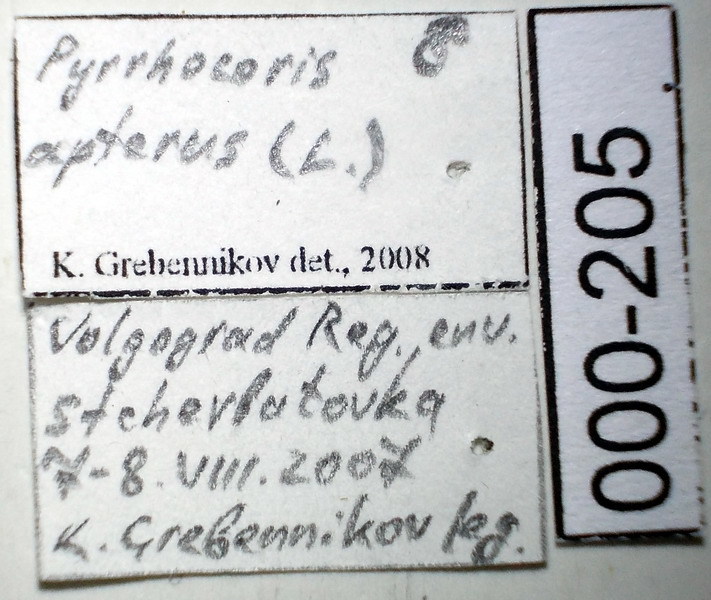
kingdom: Animalia
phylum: Arthropoda
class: Insecta
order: Hemiptera
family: Pyrrhocoridae
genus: Pyrrhocoris
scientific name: Pyrrhocoris apterus
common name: Firebug
